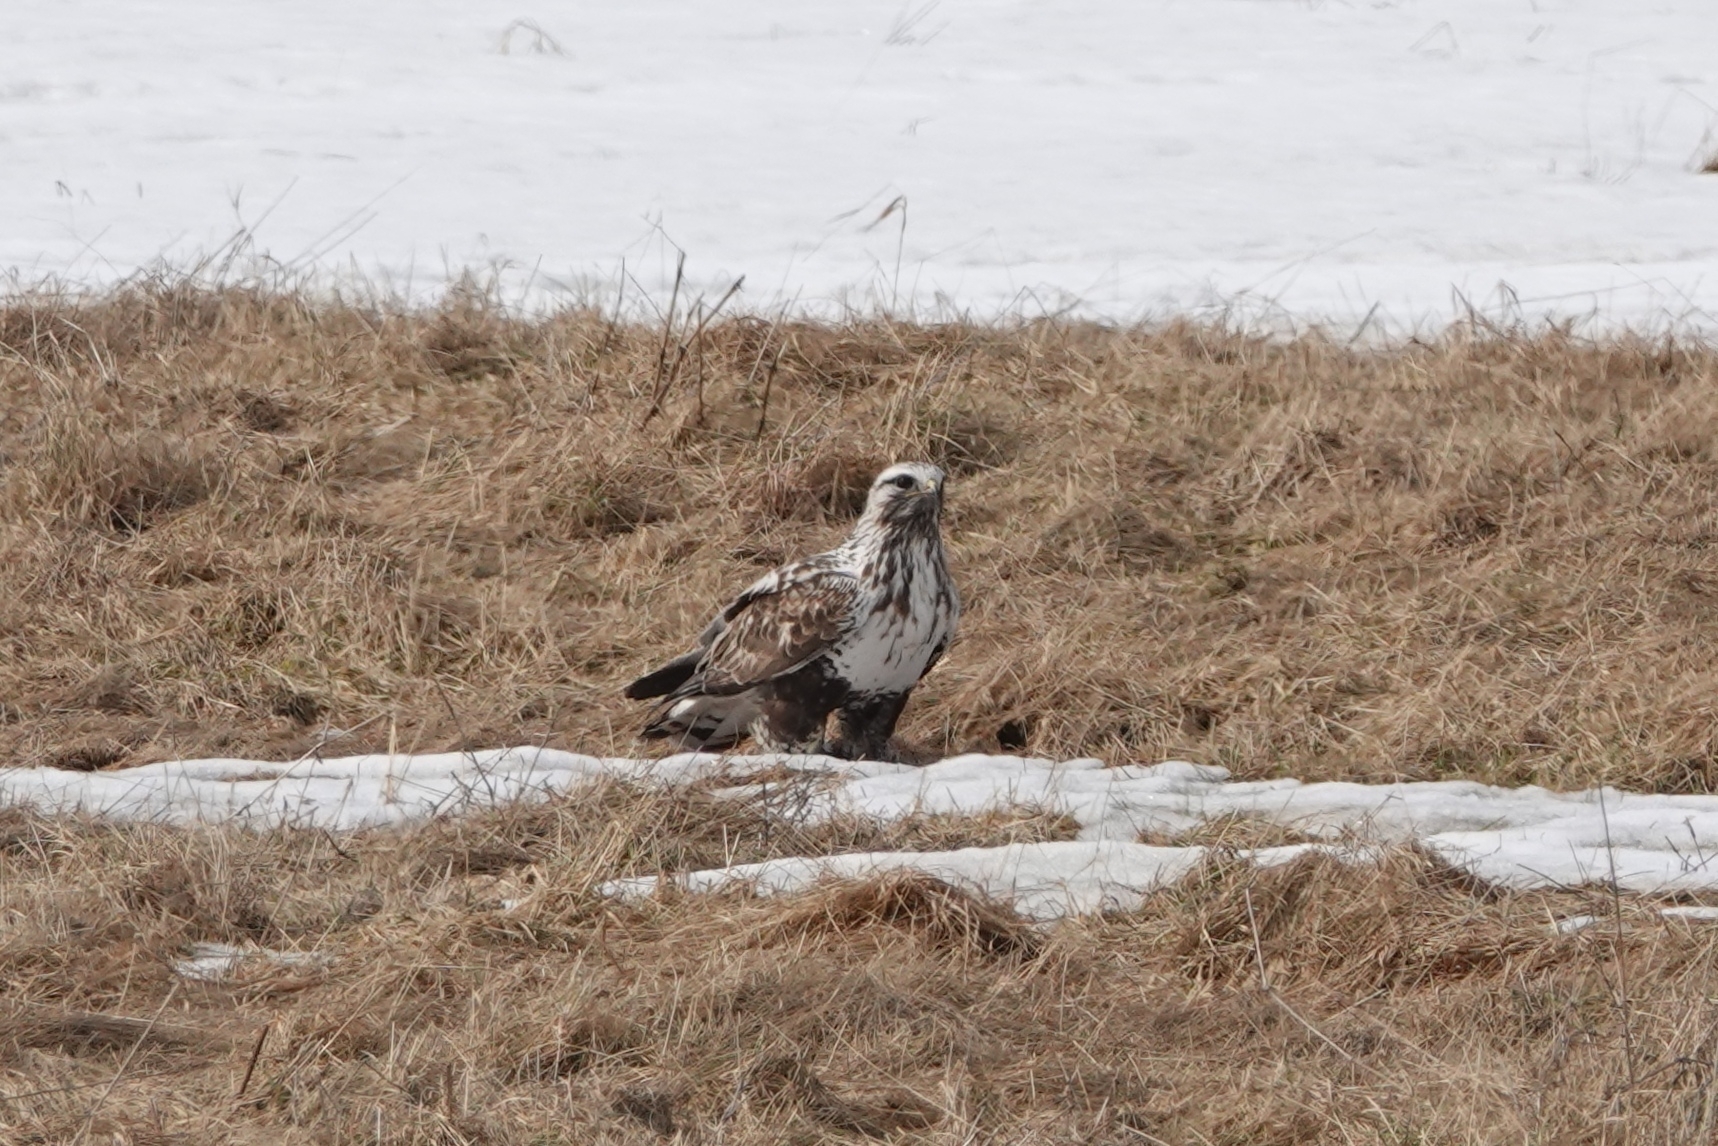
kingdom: Animalia
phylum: Chordata
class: Aves
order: Accipitriformes
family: Accipitridae
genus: Buteo
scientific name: Buteo lagopus
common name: Rough-legged buzzard
